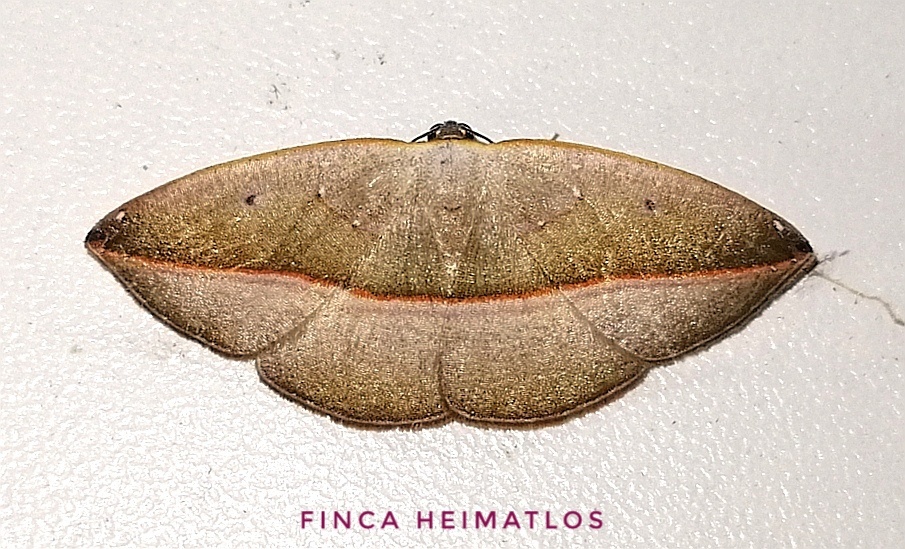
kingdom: Animalia
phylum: Arthropoda
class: Insecta
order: Lepidoptera
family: Geometridae
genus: Cartellodes
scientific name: Cartellodes levis
